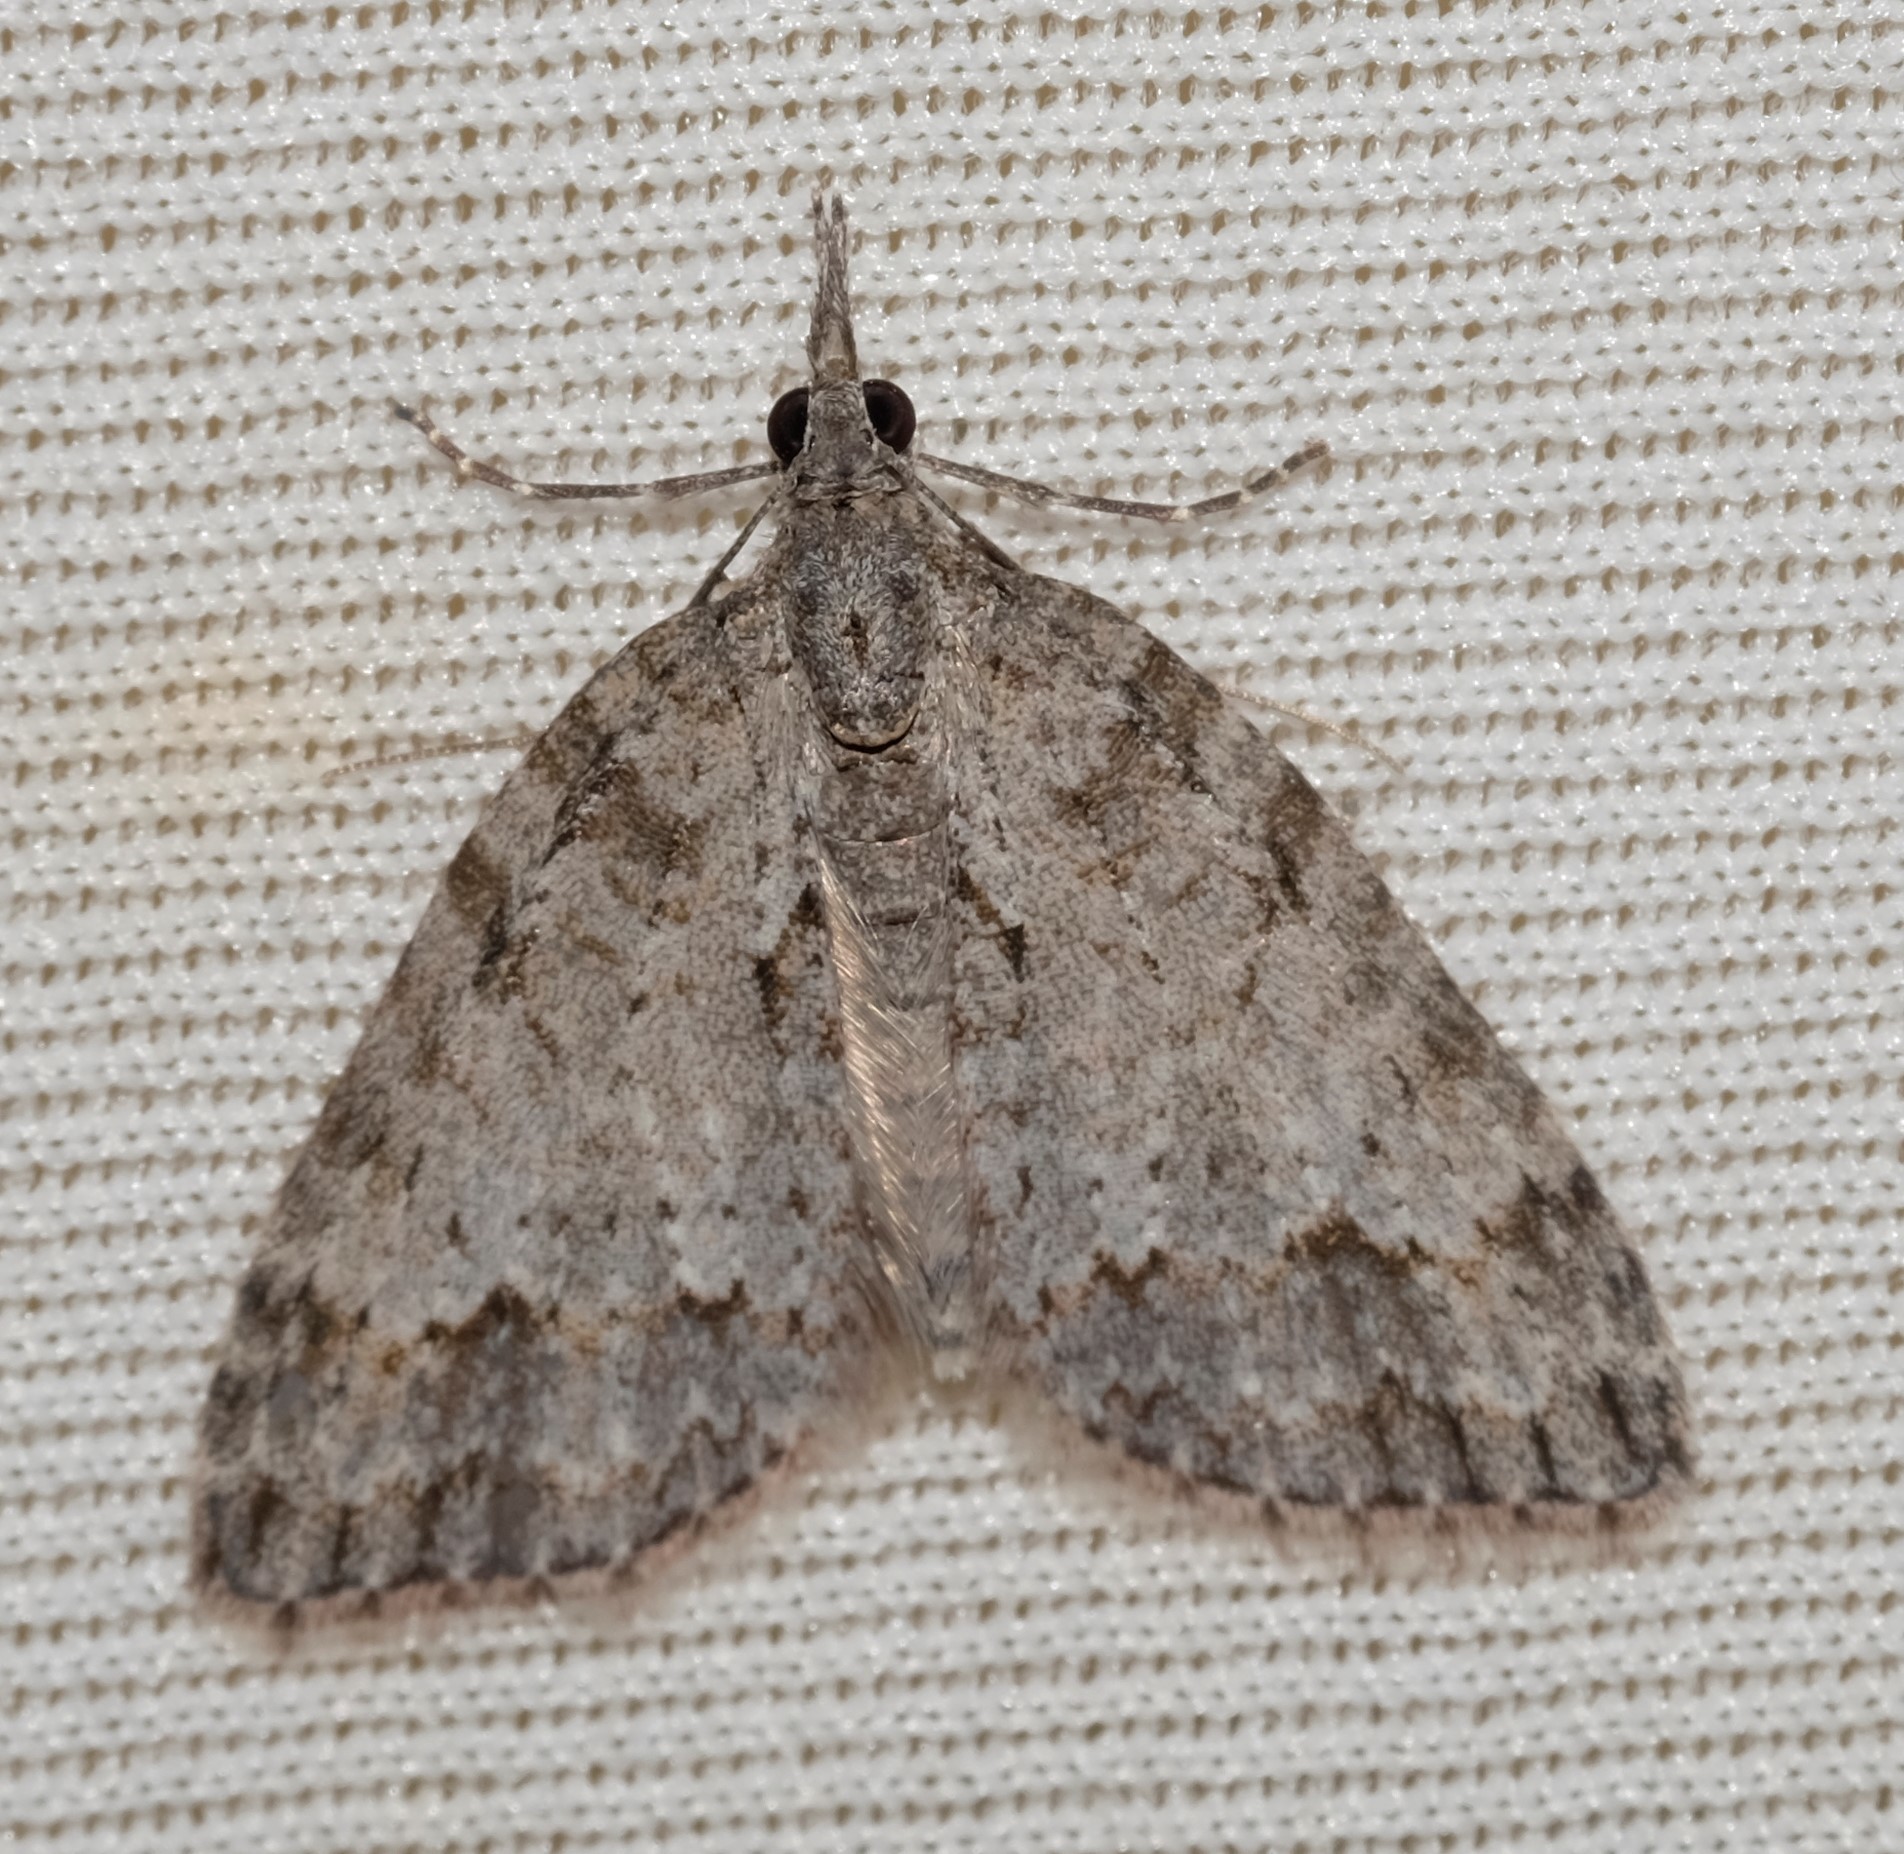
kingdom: Animalia
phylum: Arthropoda
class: Insecta
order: Lepidoptera
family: Geometridae
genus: Microdes
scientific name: Microdes villosata
